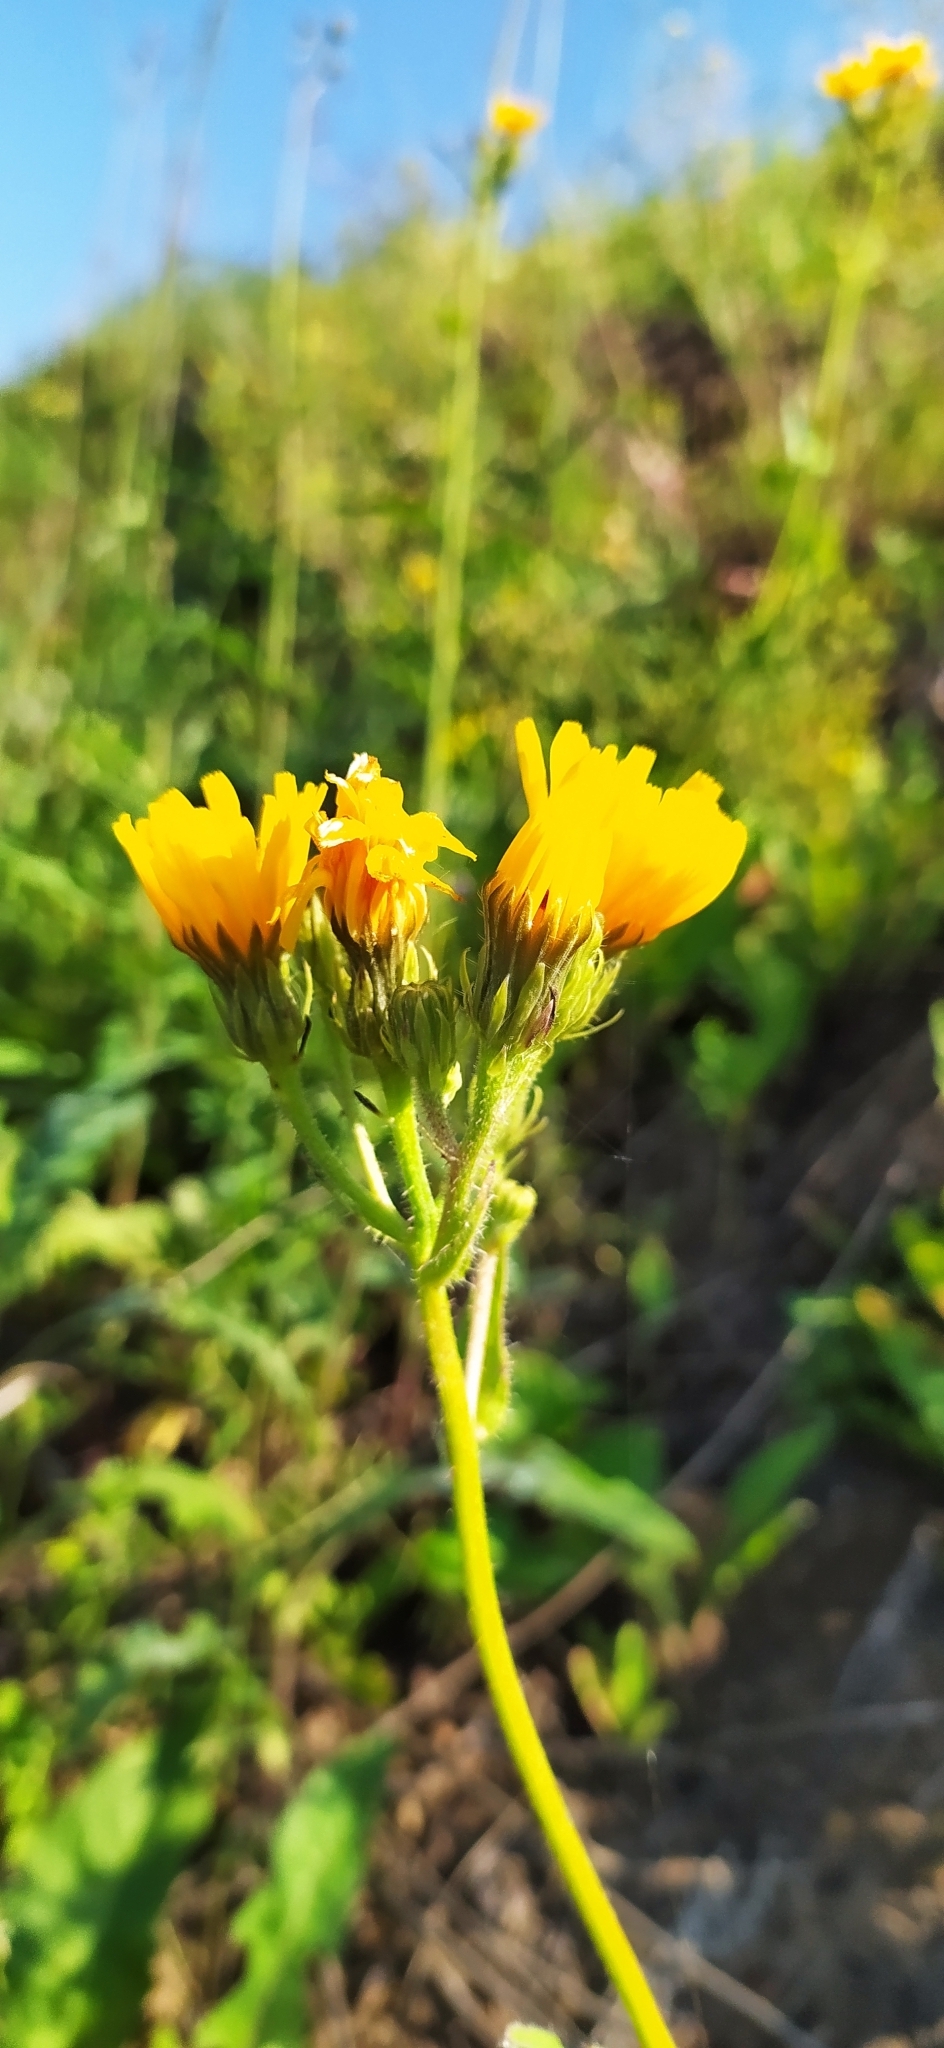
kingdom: Plantae
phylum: Tracheophyta
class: Magnoliopsida
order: Asterales
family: Asteraceae
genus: Picris
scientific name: Picris hieracioides
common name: Hawkweed oxtongue
